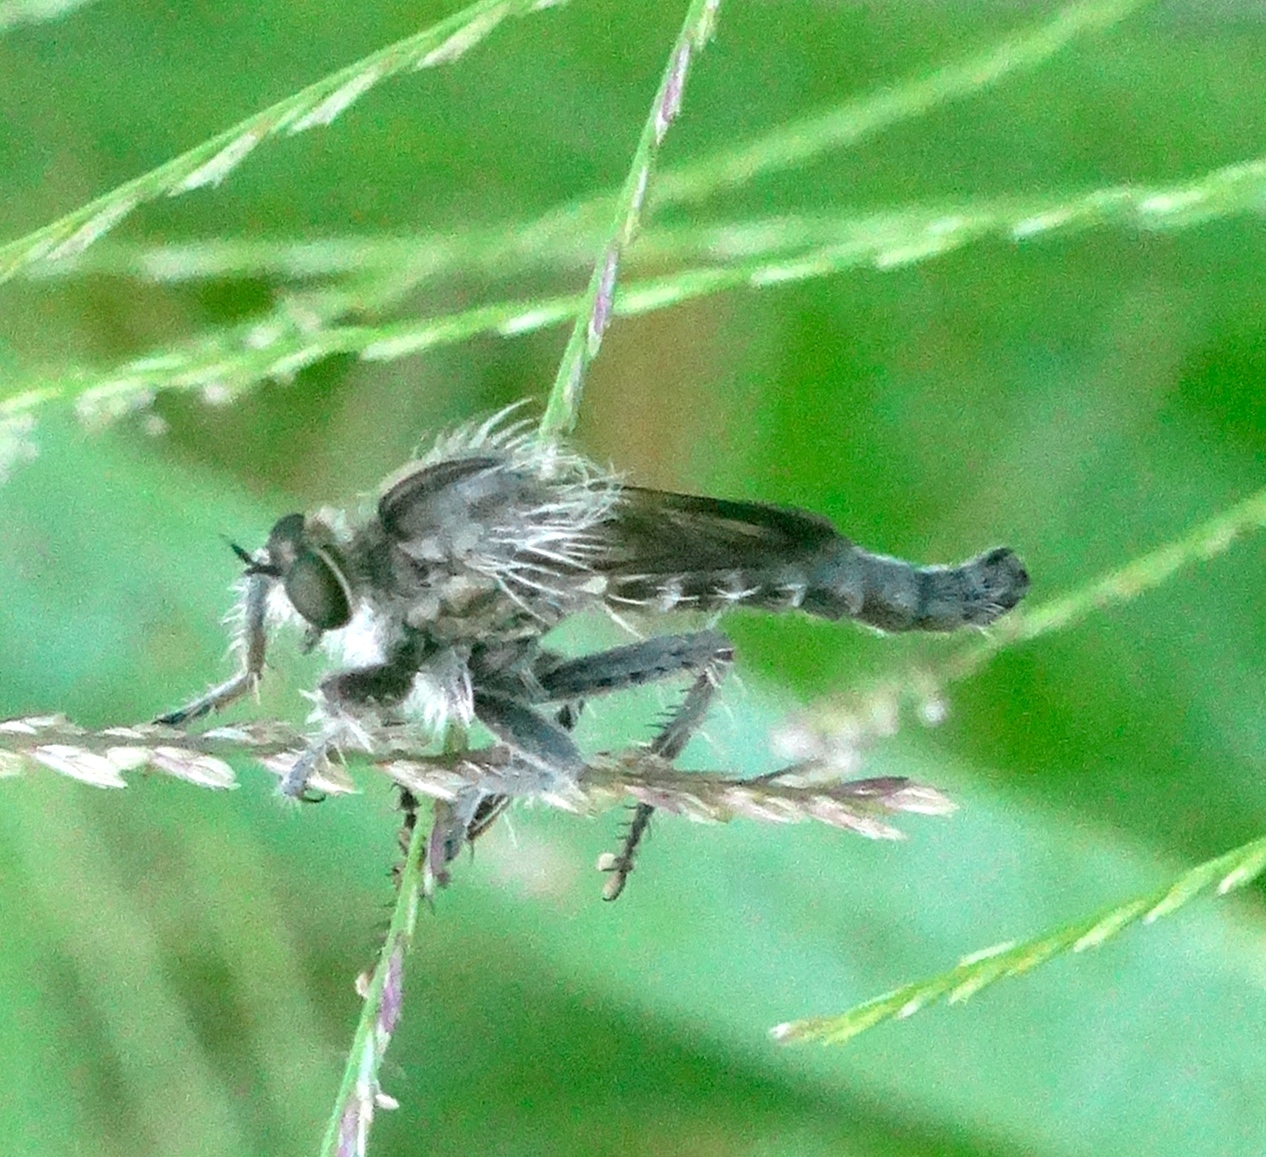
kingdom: Animalia
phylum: Arthropoda
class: Insecta
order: Diptera
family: Asilidae
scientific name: Asilidae
